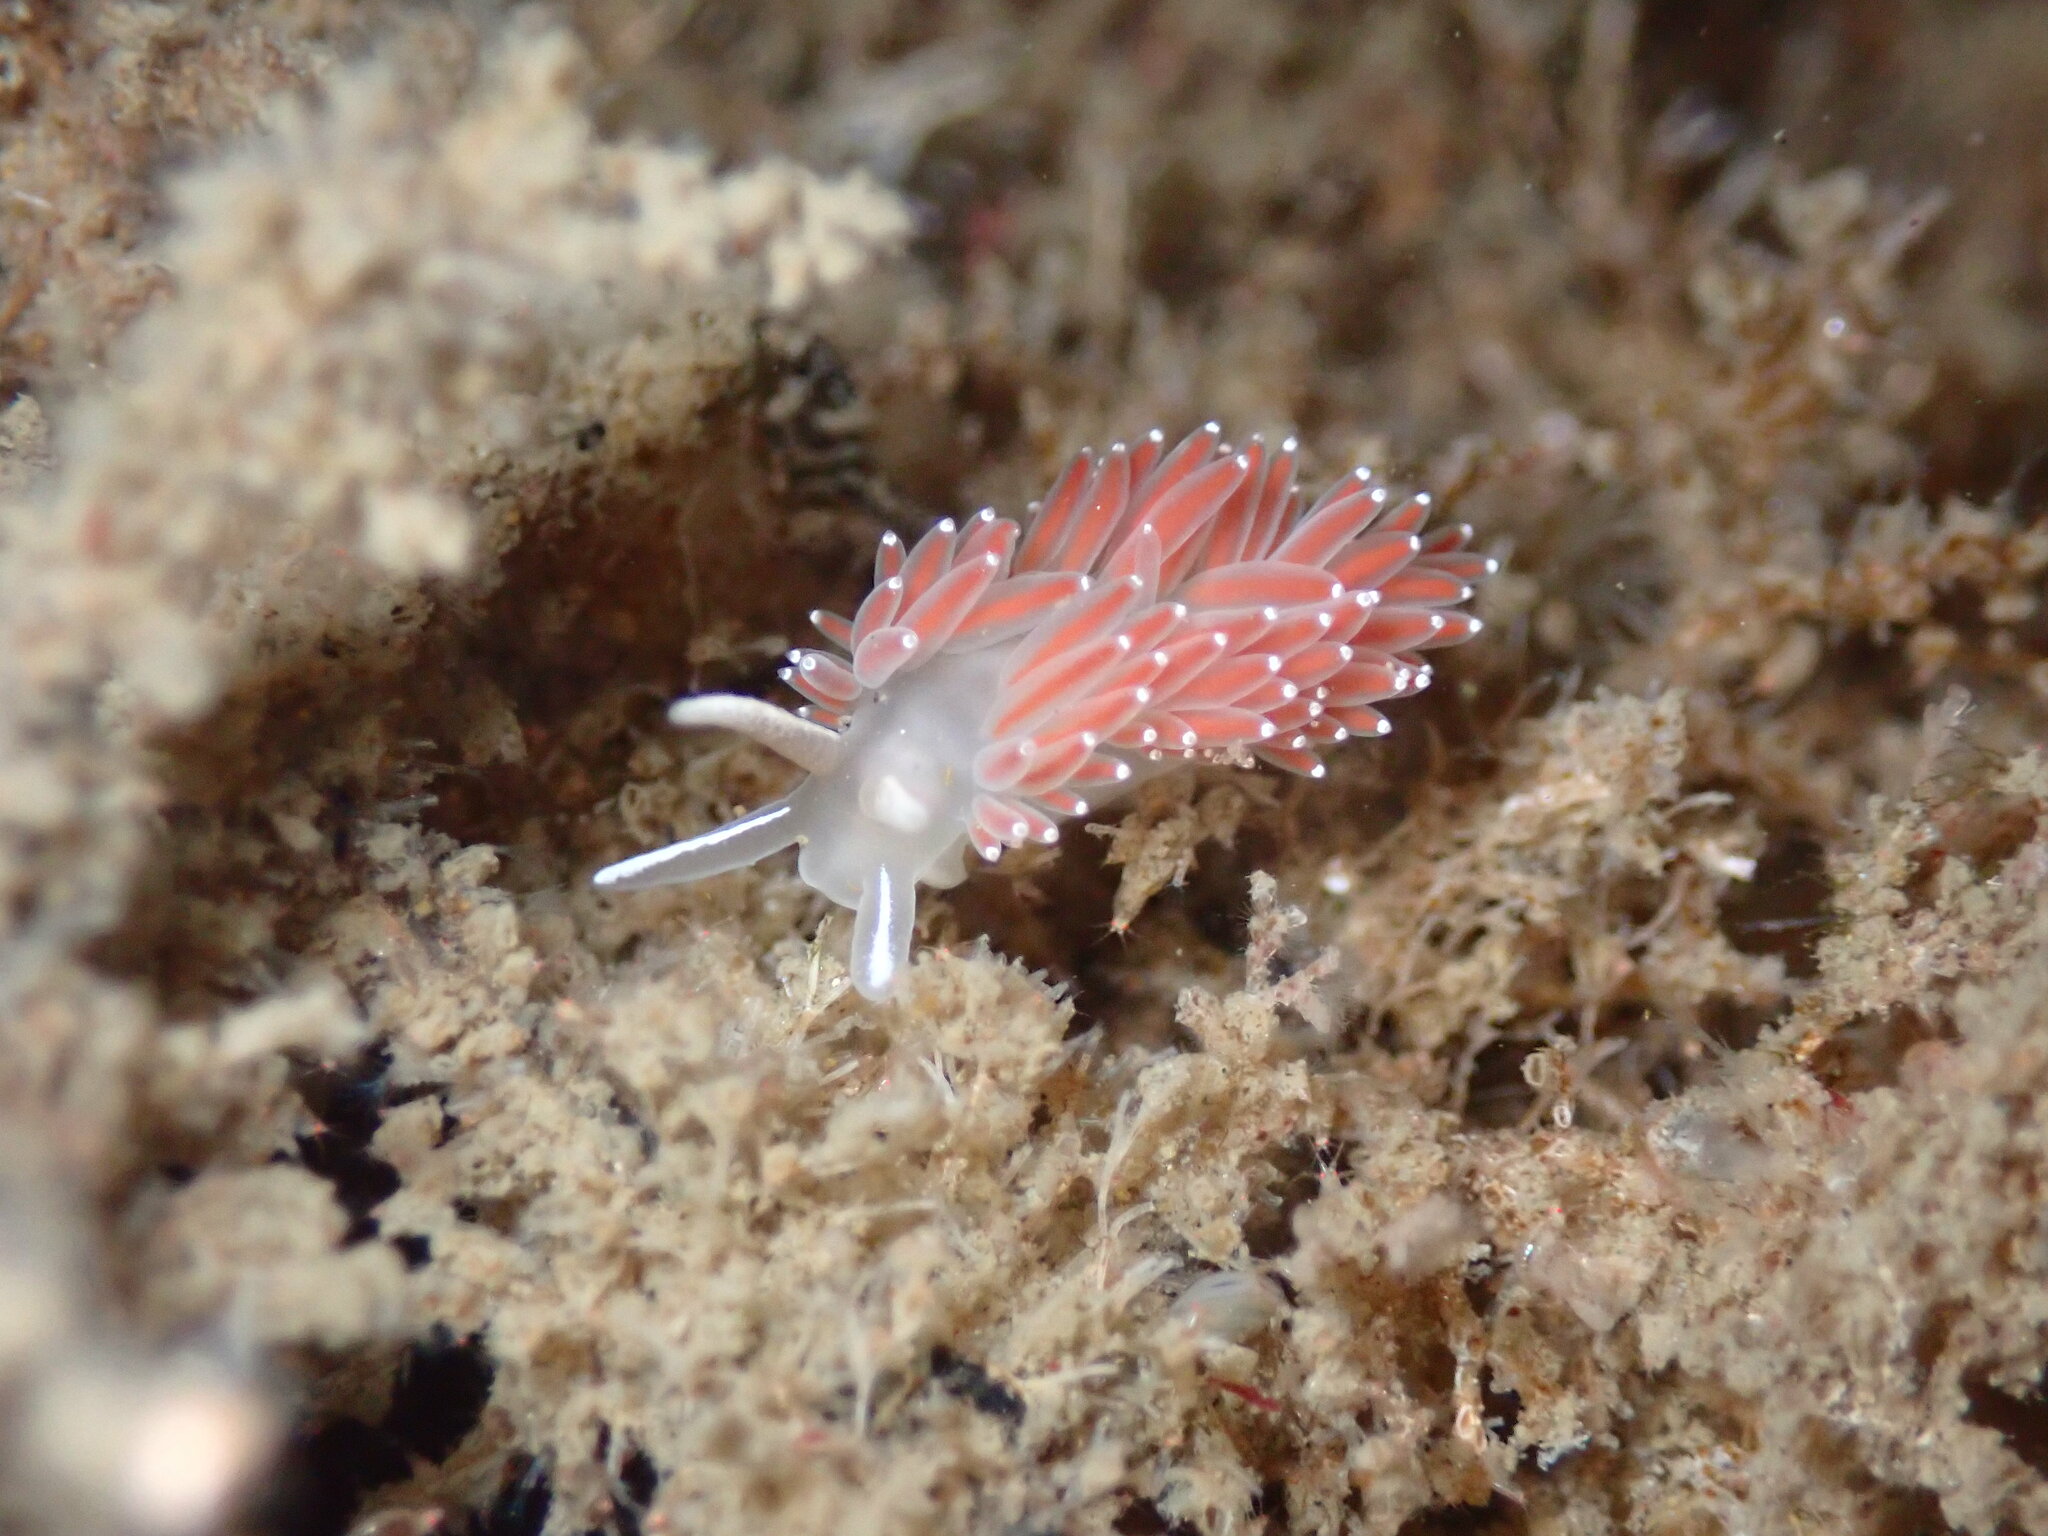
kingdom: Animalia
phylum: Mollusca
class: Gastropoda
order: Nudibranchia
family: Coryphellidae
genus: Coryphella
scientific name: Coryphella verrucosa
